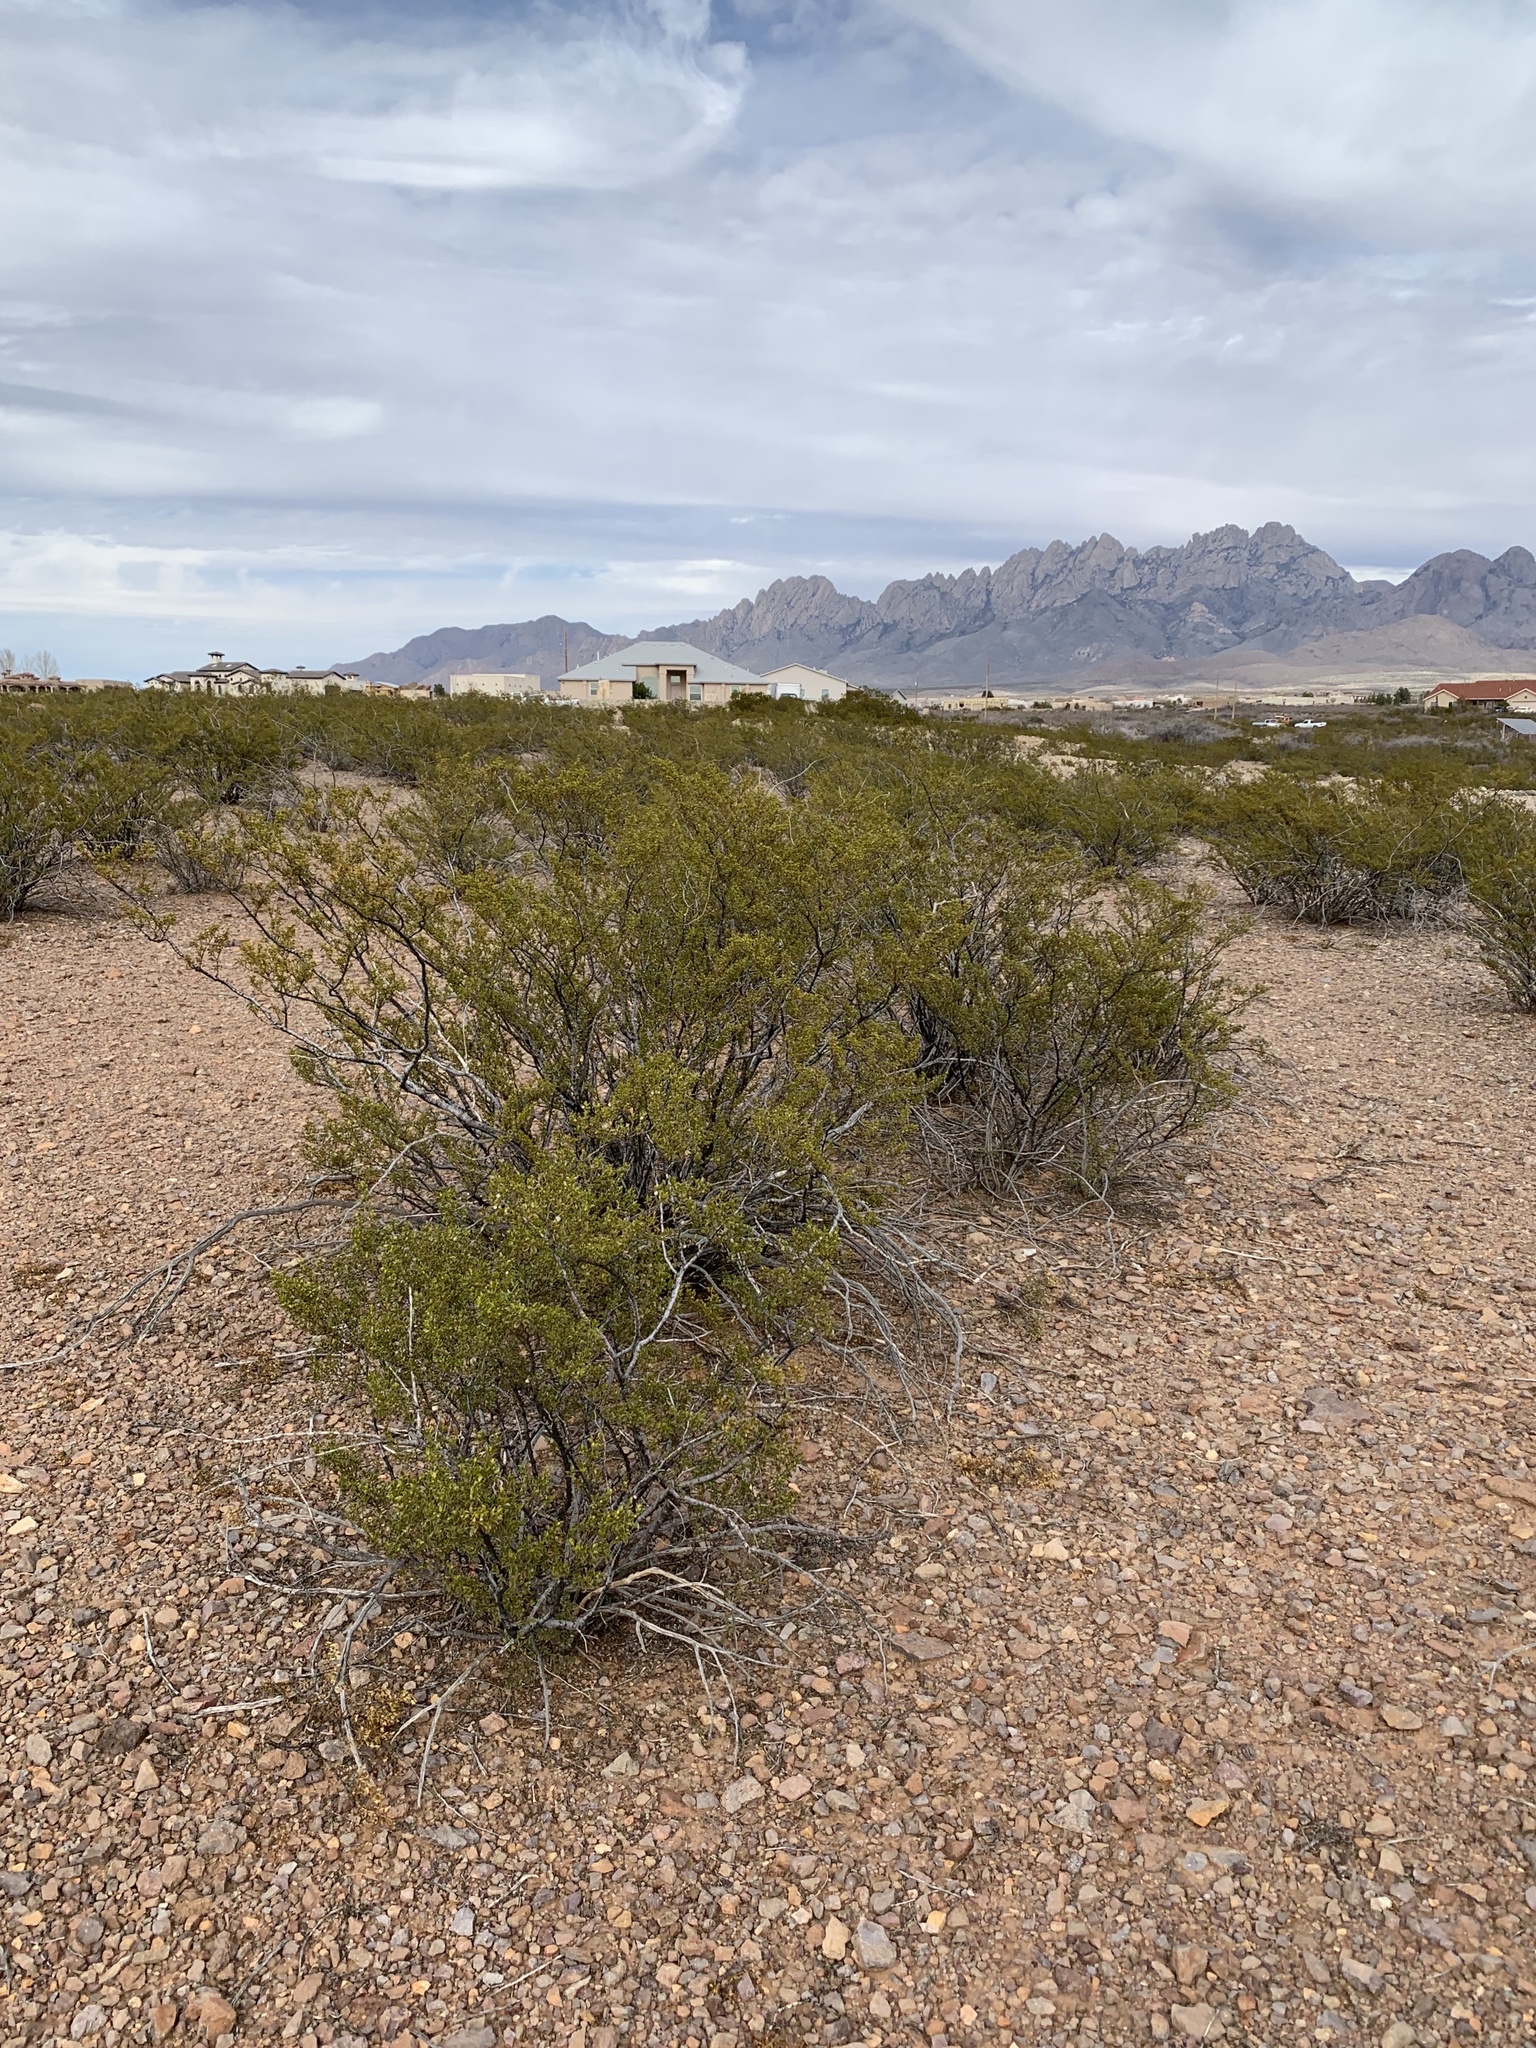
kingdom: Plantae
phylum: Tracheophyta
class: Magnoliopsida
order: Zygophyllales
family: Zygophyllaceae
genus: Larrea
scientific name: Larrea tridentata
